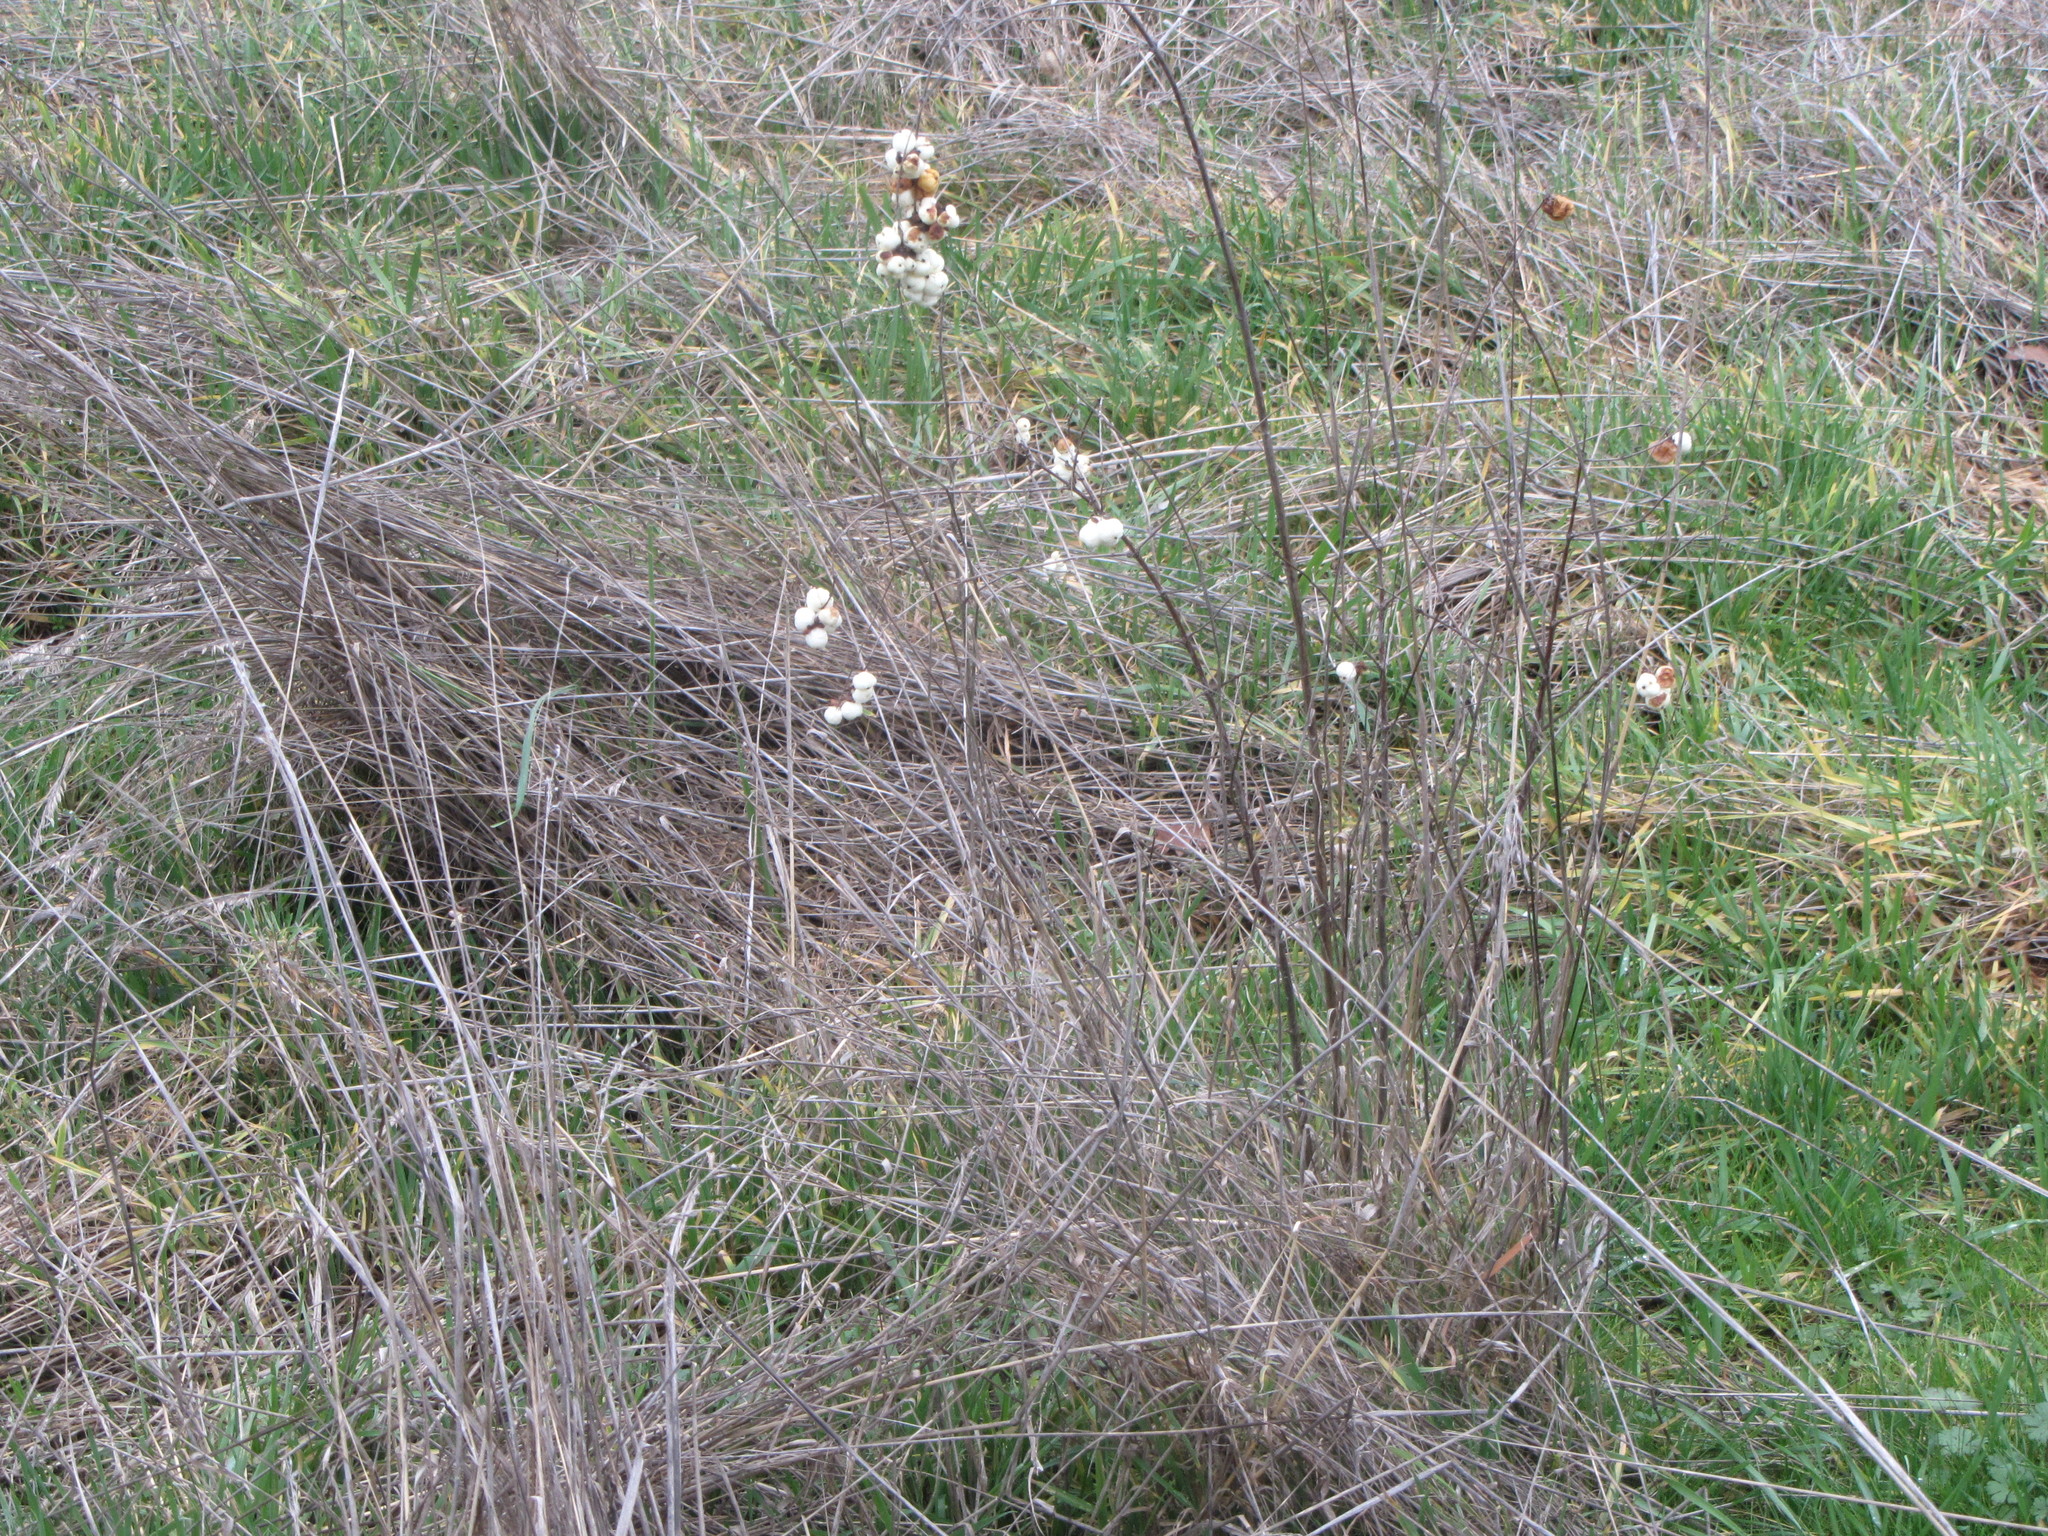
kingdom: Plantae
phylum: Tracheophyta
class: Magnoliopsida
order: Dipsacales
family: Caprifoliaceae
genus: Symphoricarpos
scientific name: Symphoricarpos albus
